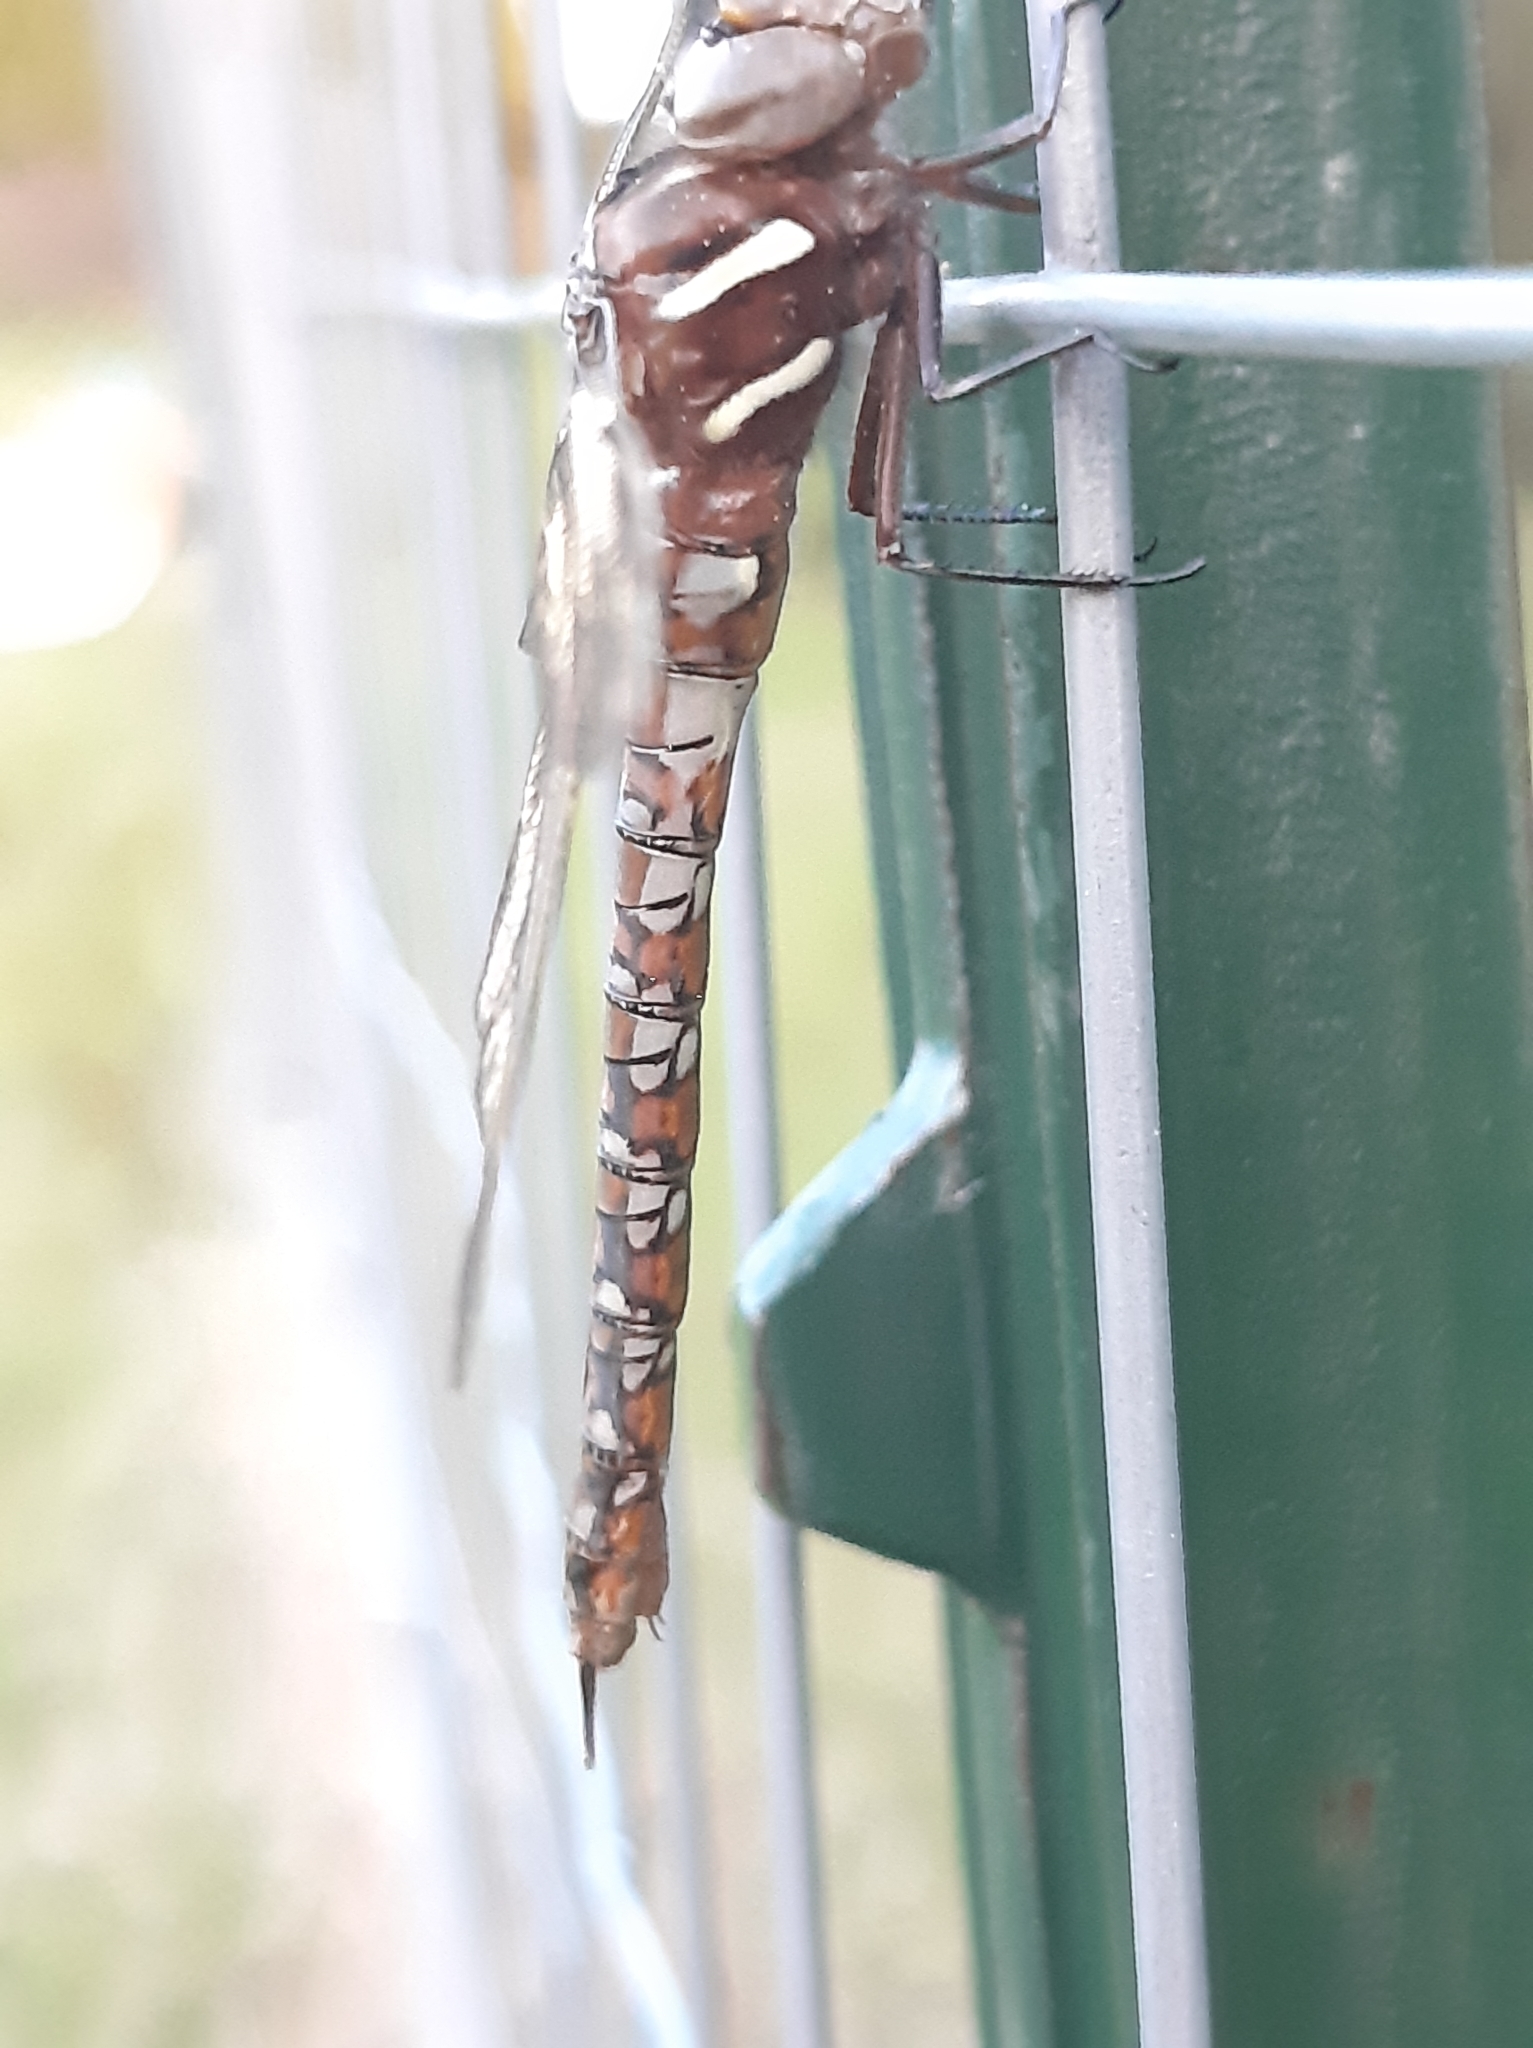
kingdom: Animalia
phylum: Arthropoda
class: Insecta
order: Odonata
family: Aeshnidae
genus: Basiaeschna
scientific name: Basiaeschna janata
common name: Springtime darner
